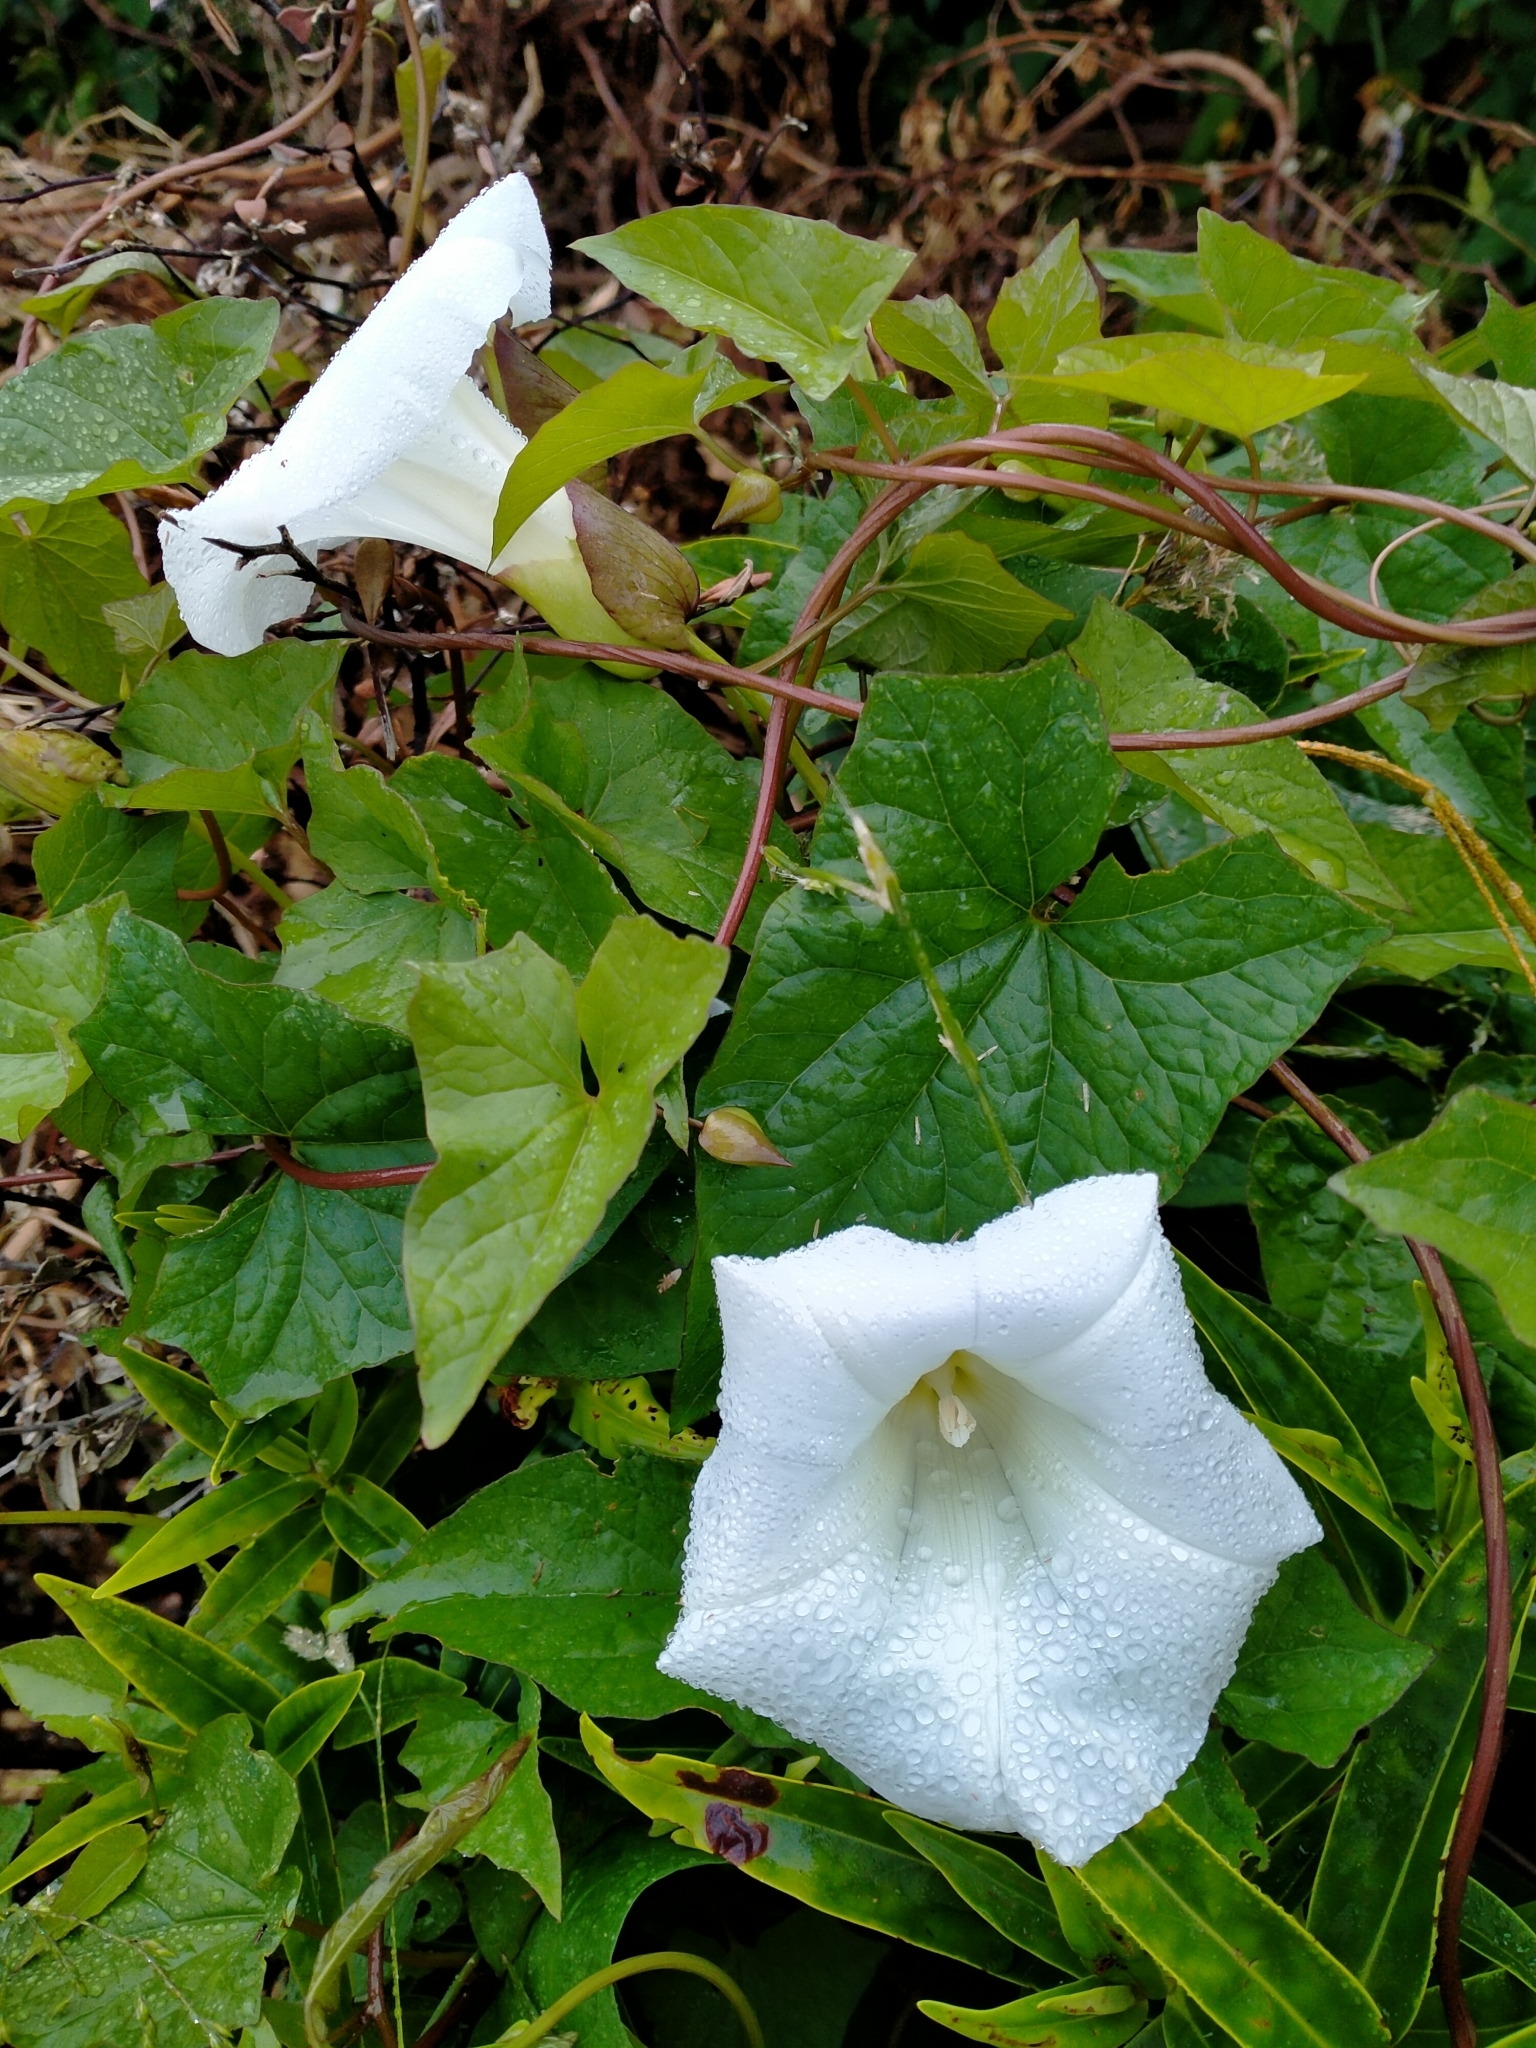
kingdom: Plantae
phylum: Tracheophyta
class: Magnoliopsida
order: Solanales
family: Convolvulaceae
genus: Calystegia
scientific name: Calystegia silvatica
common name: Large bindweed
